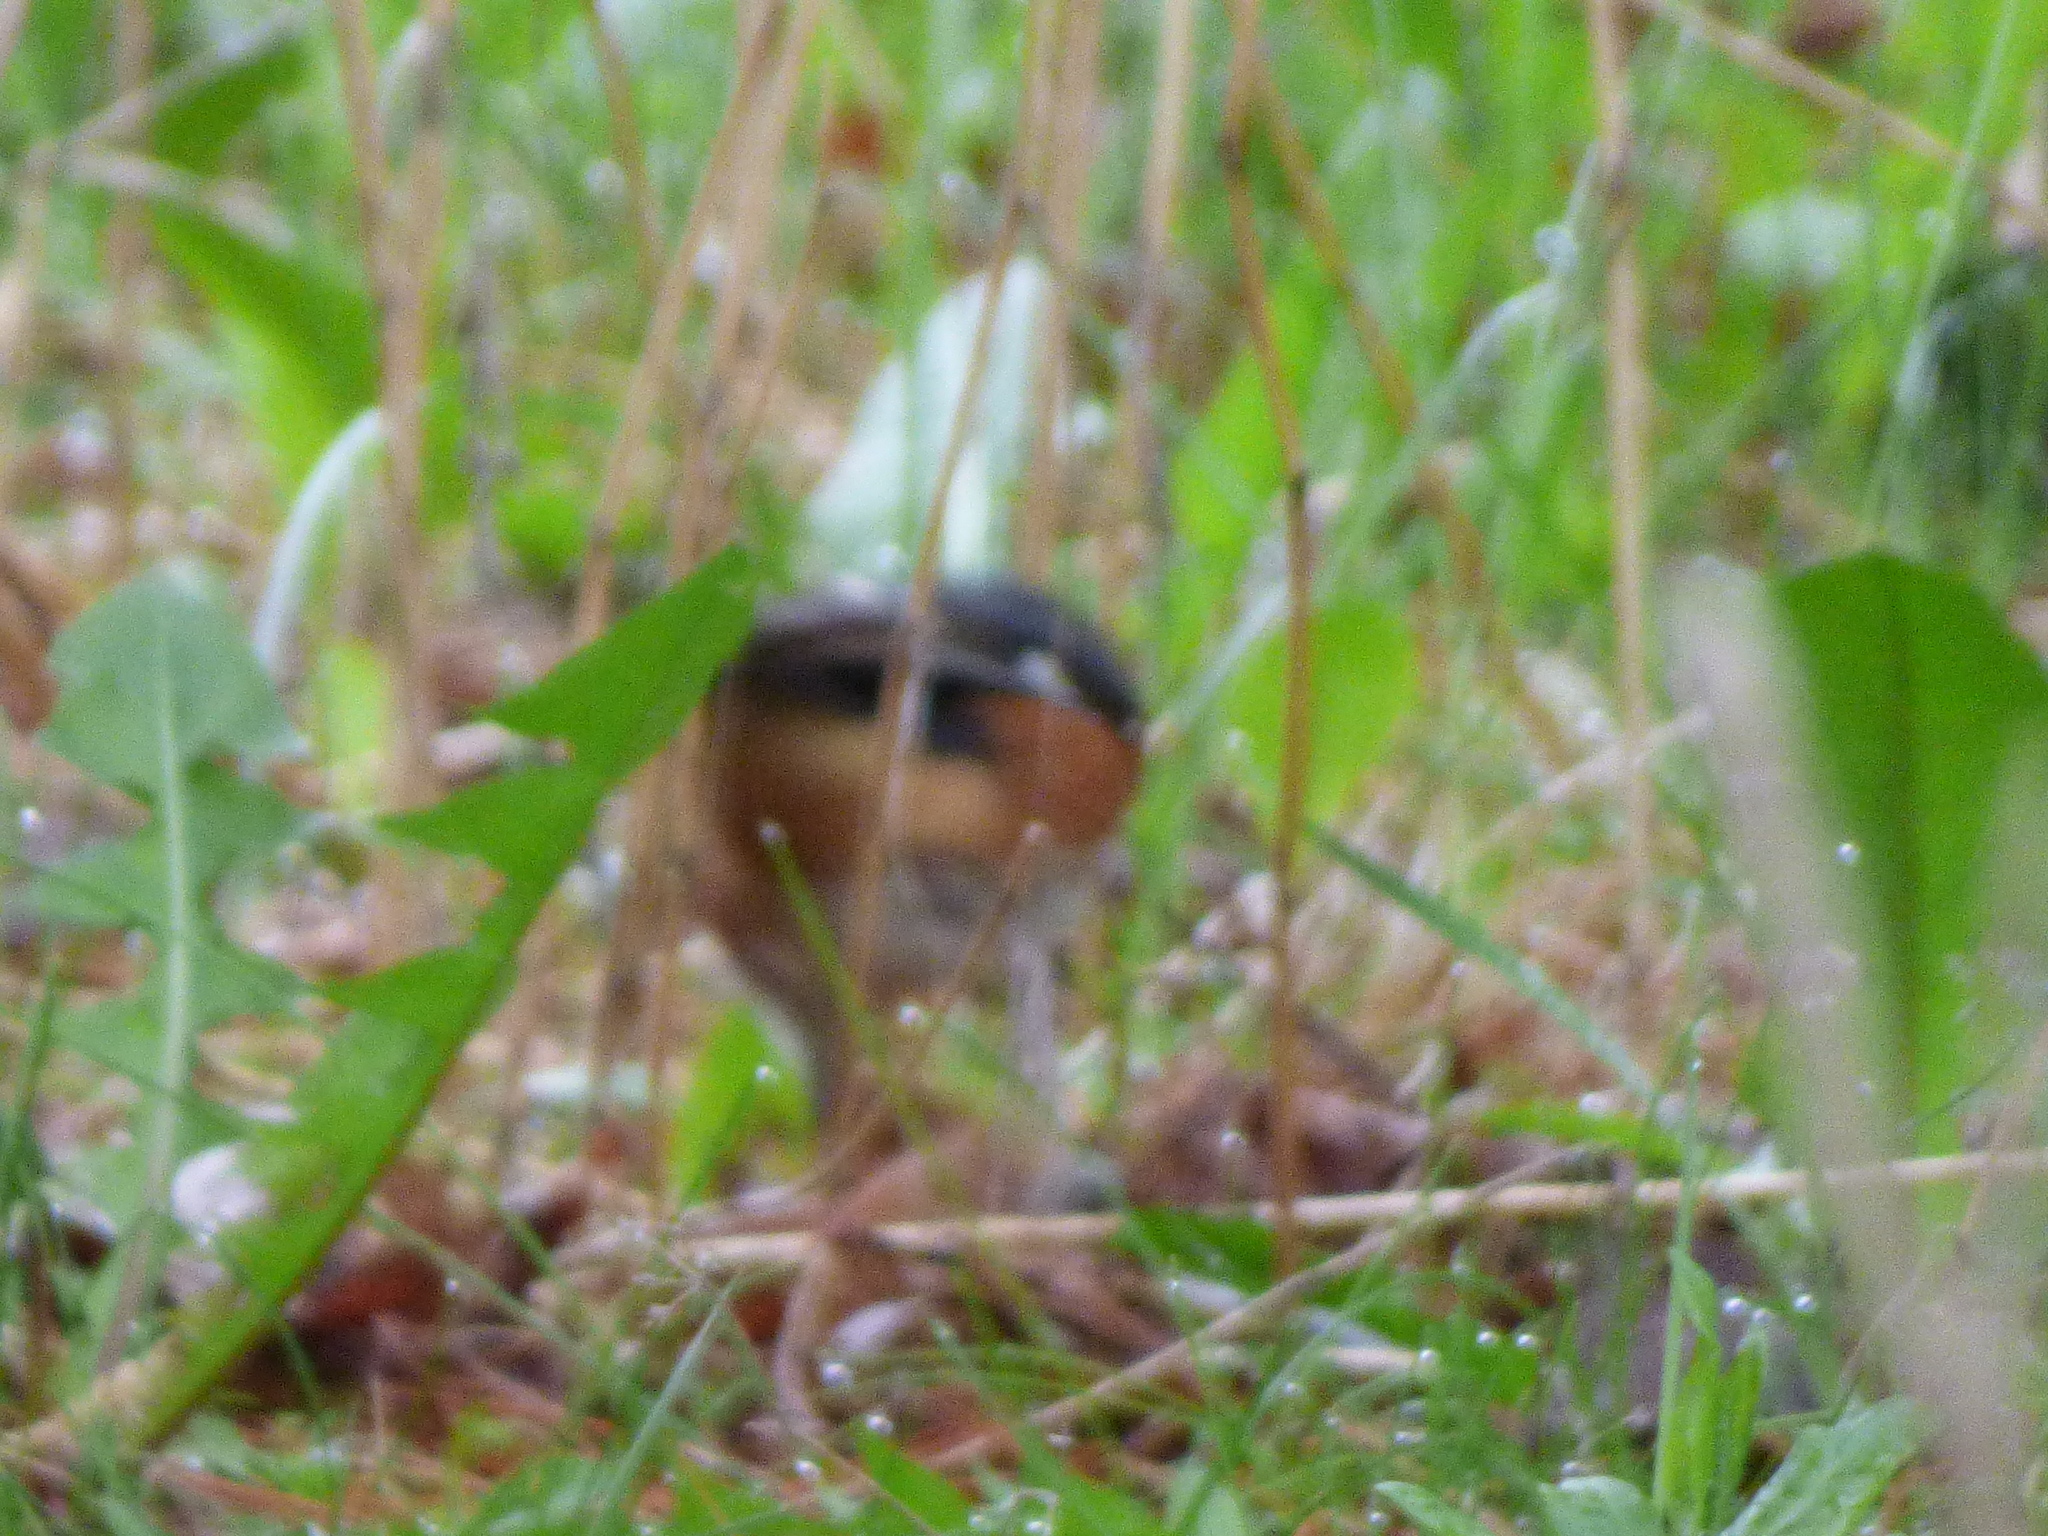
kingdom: Animalia
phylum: Chordata
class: Aves
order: Passeriformes
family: Passerellidae
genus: Pipilo
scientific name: Pipilo erythrophthalmus
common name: Eastern towhee
